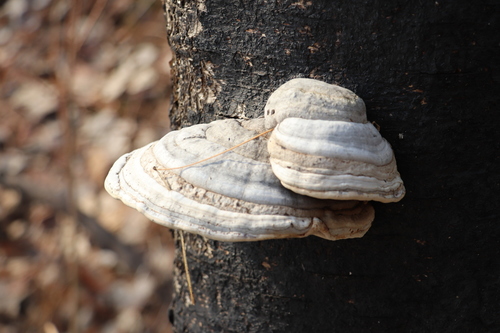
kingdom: Fungi
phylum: Basidiomycota
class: Agaricomycetes
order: Polyporales
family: Polyporaceae
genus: Fomes
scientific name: Fomes fomentarius
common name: Hoof fungus
